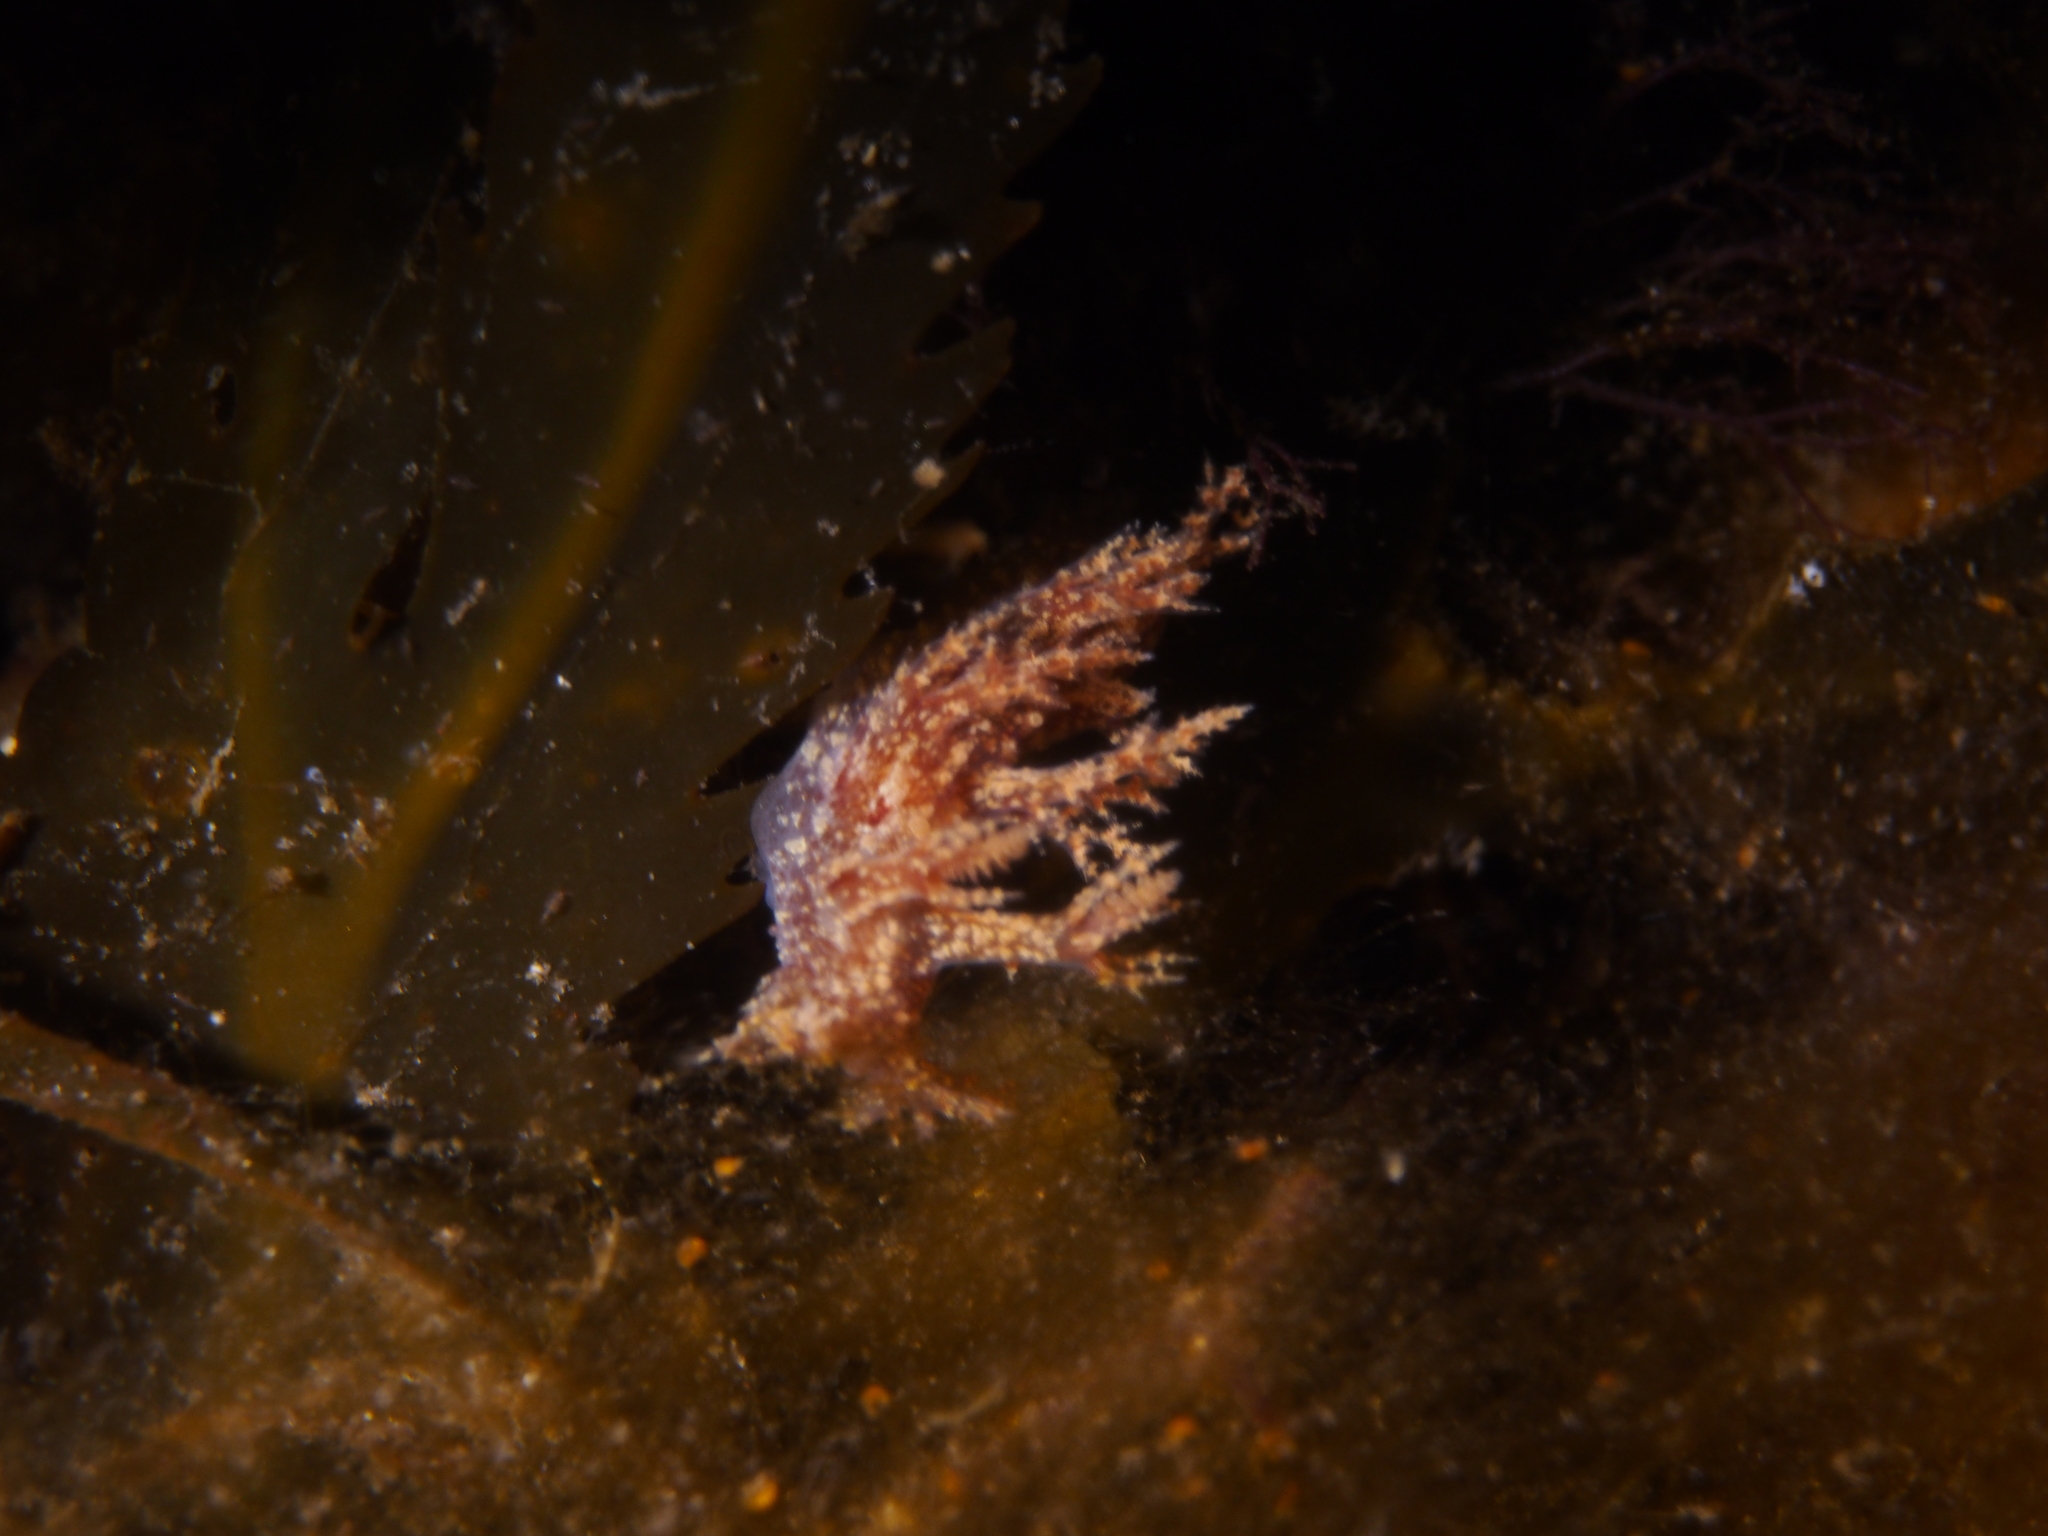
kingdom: Animalia
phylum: Mollusca
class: Gastropoda
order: Nudibranchia
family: Dendronotidae
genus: Dendronotus
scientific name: Dendronotus frondosus
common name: Bushy-backed nudibranch
